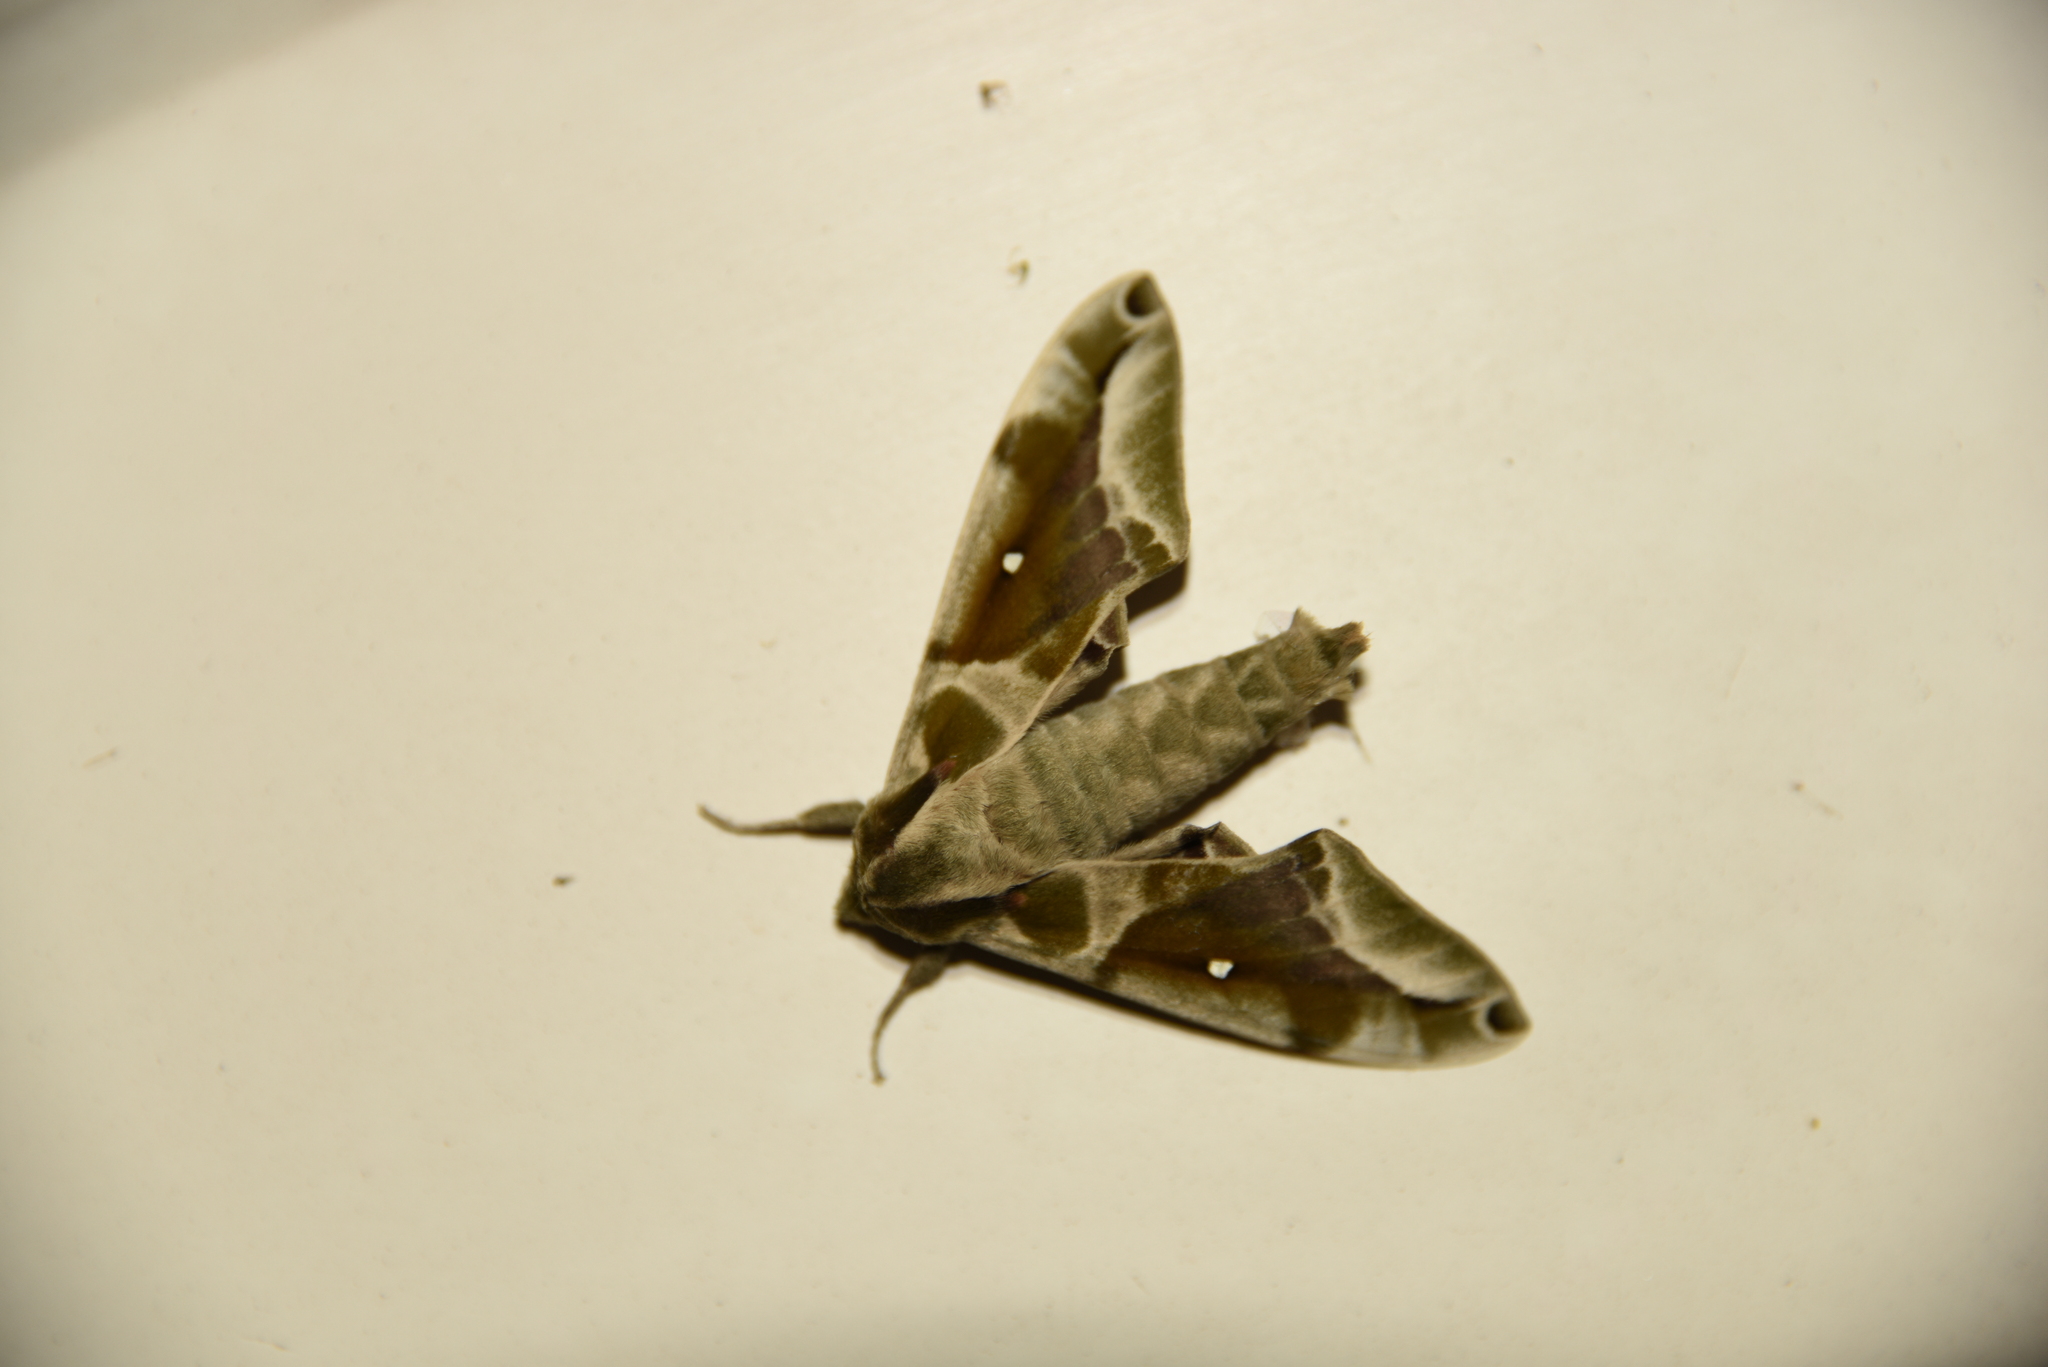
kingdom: Animalia
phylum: Arthropoda
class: Insecta
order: Lepidoptera
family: Sphingidae
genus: Parum
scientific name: Parum colligata
